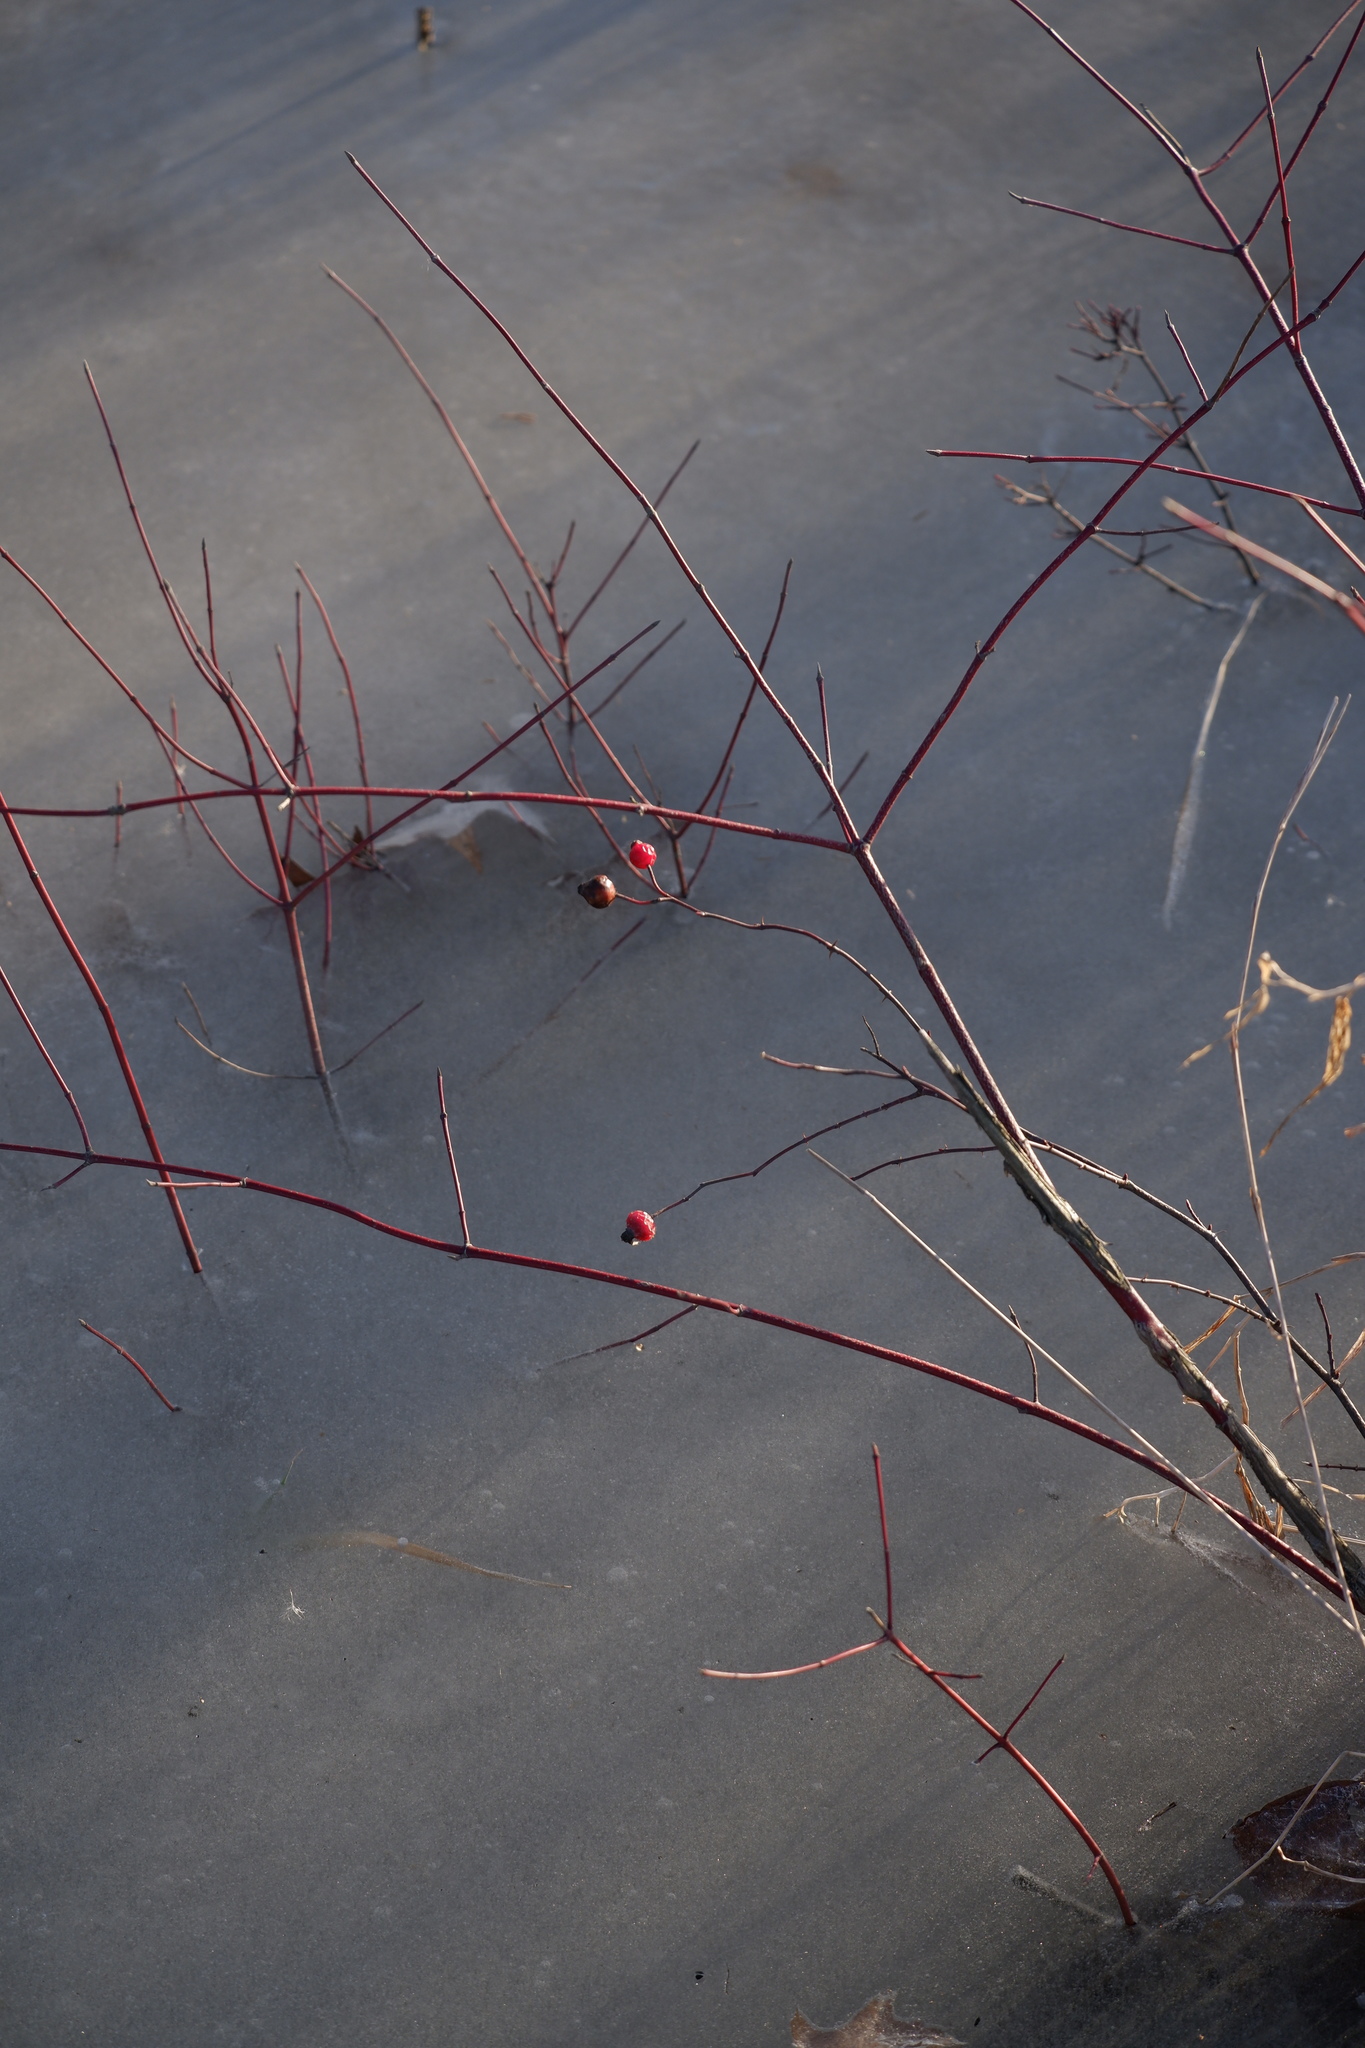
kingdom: Plantae
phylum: Tracheophyta
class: Magnoliopsida
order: Rosales
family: Rosaceae
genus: Rosa
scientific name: Rosa palustris
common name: Swamp rose
